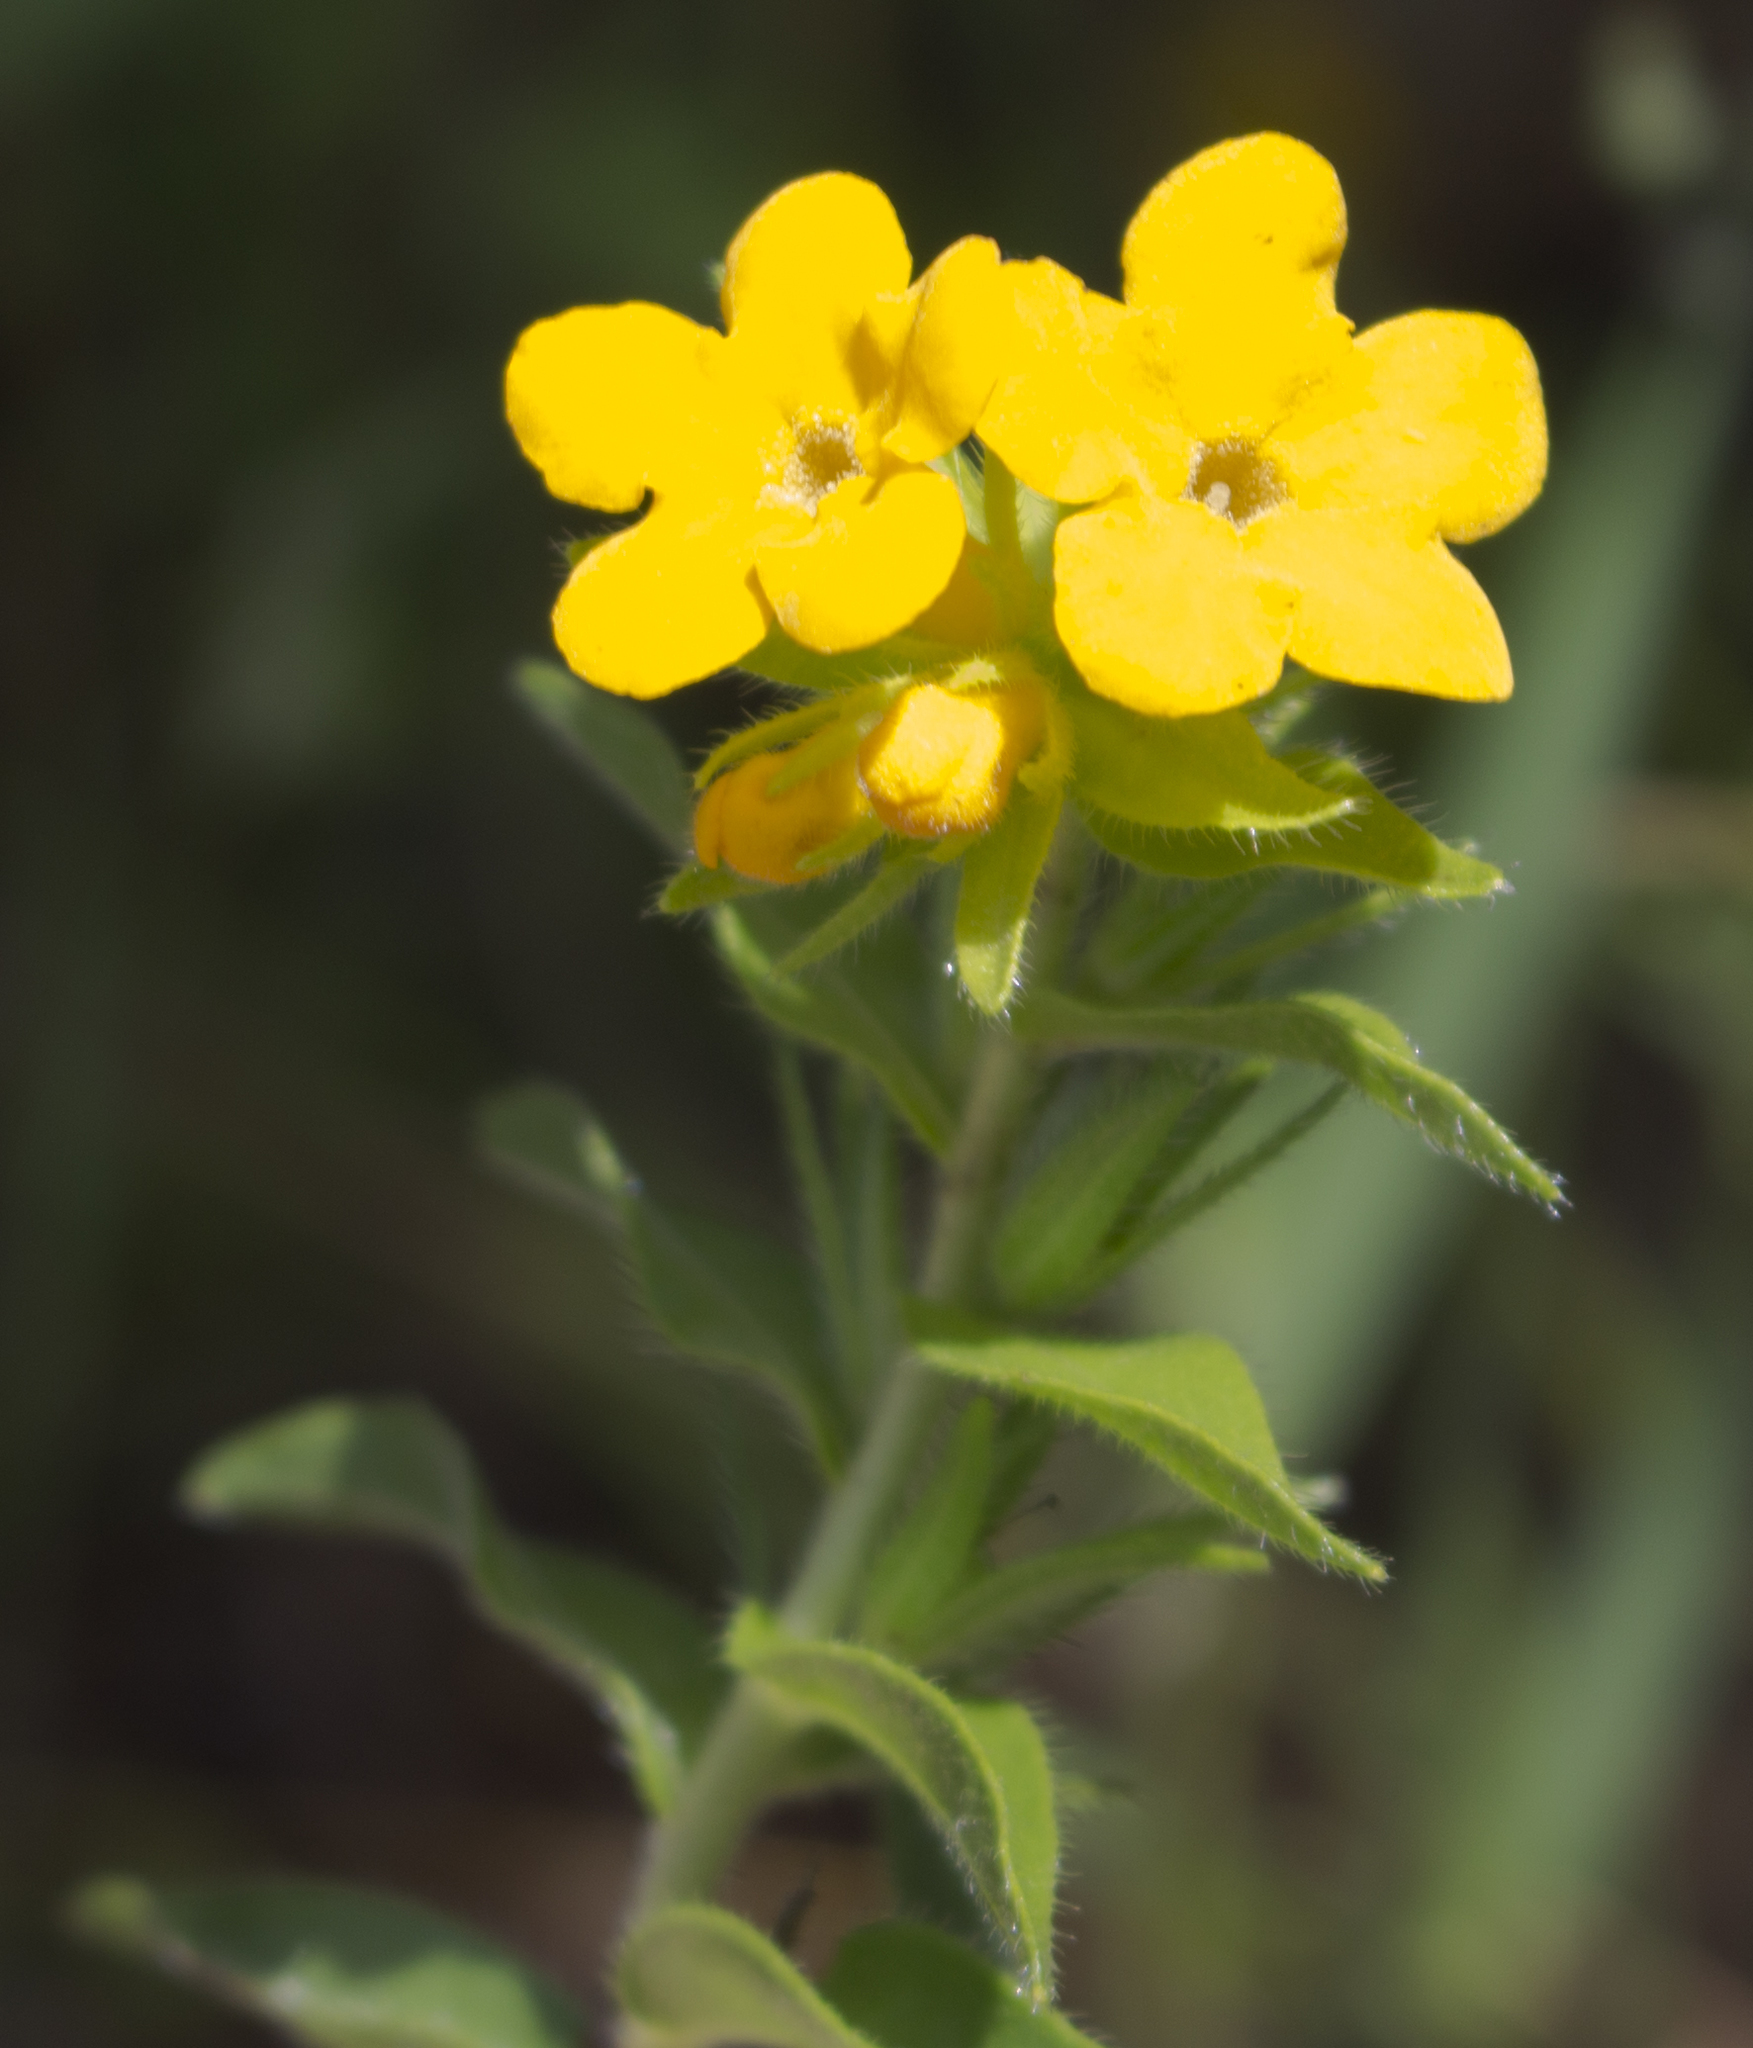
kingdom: Plantae
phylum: Tracheophyta
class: Magnoliopsida
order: Boraginales
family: Boraginaceae
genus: Lithospermum
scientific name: Lithospermum caroliniense
